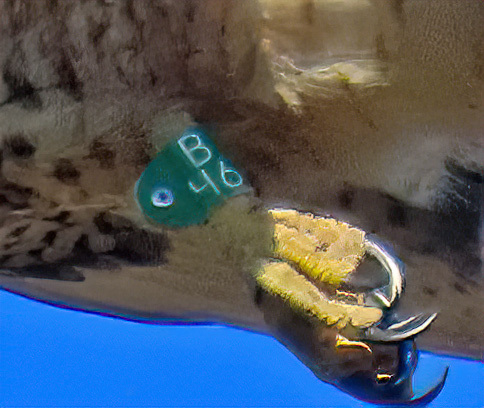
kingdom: Animalia
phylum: Chordata
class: Aves
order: Accipitriformes
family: Accipitridae
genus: Buteo
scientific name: Buteo jamaicensis
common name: Red-tailed hawk
